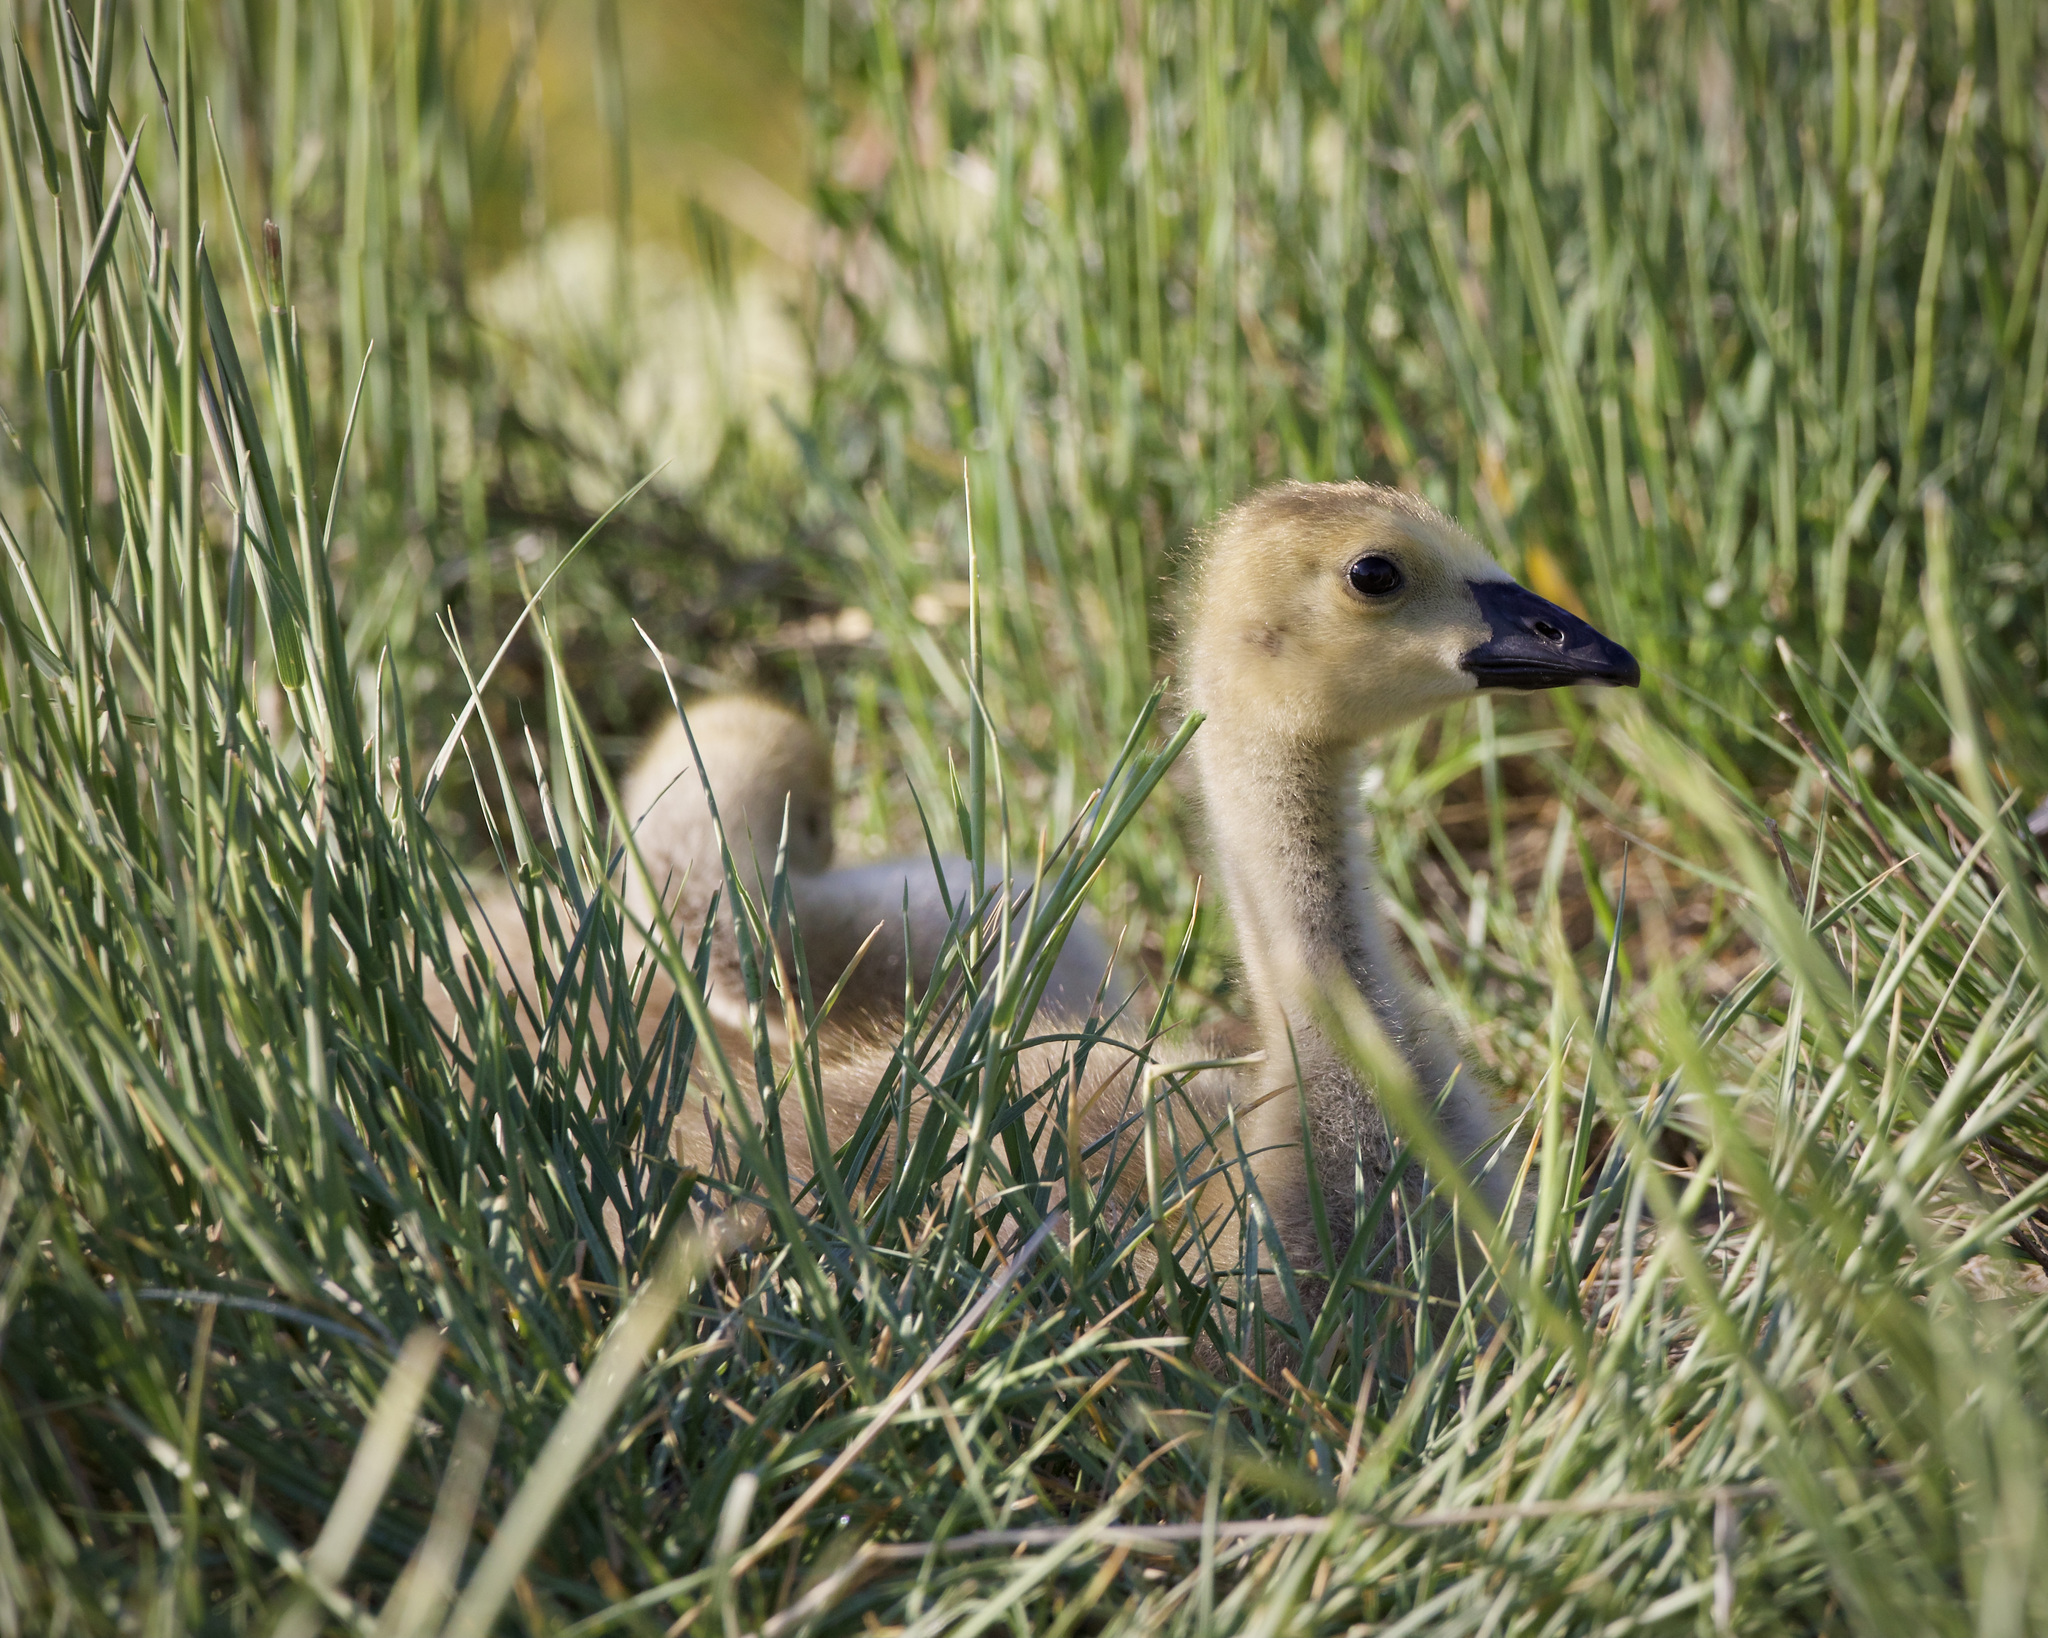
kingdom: Animalia
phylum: Chordata
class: Aves
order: Anseriformes
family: Anatidae
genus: Branta
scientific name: Branta canadensis
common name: Canada goose
